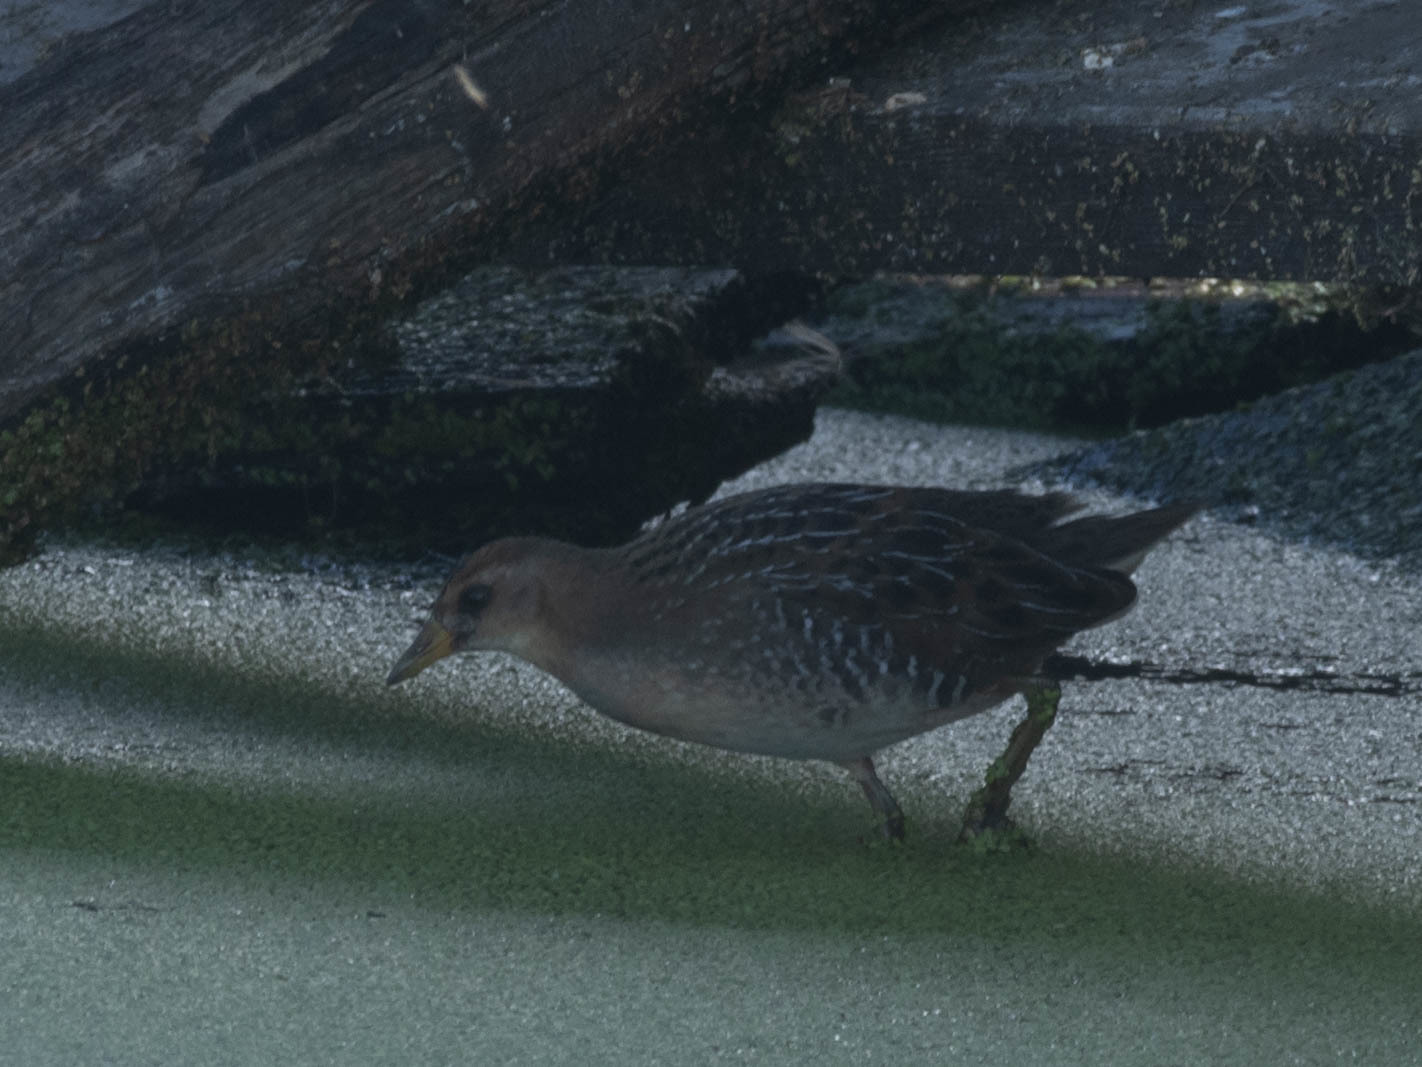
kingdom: Animalia
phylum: Chordata
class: Aves
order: Gruiformes
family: Rallidae
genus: Porzana
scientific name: Porzana carolina
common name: Sora
